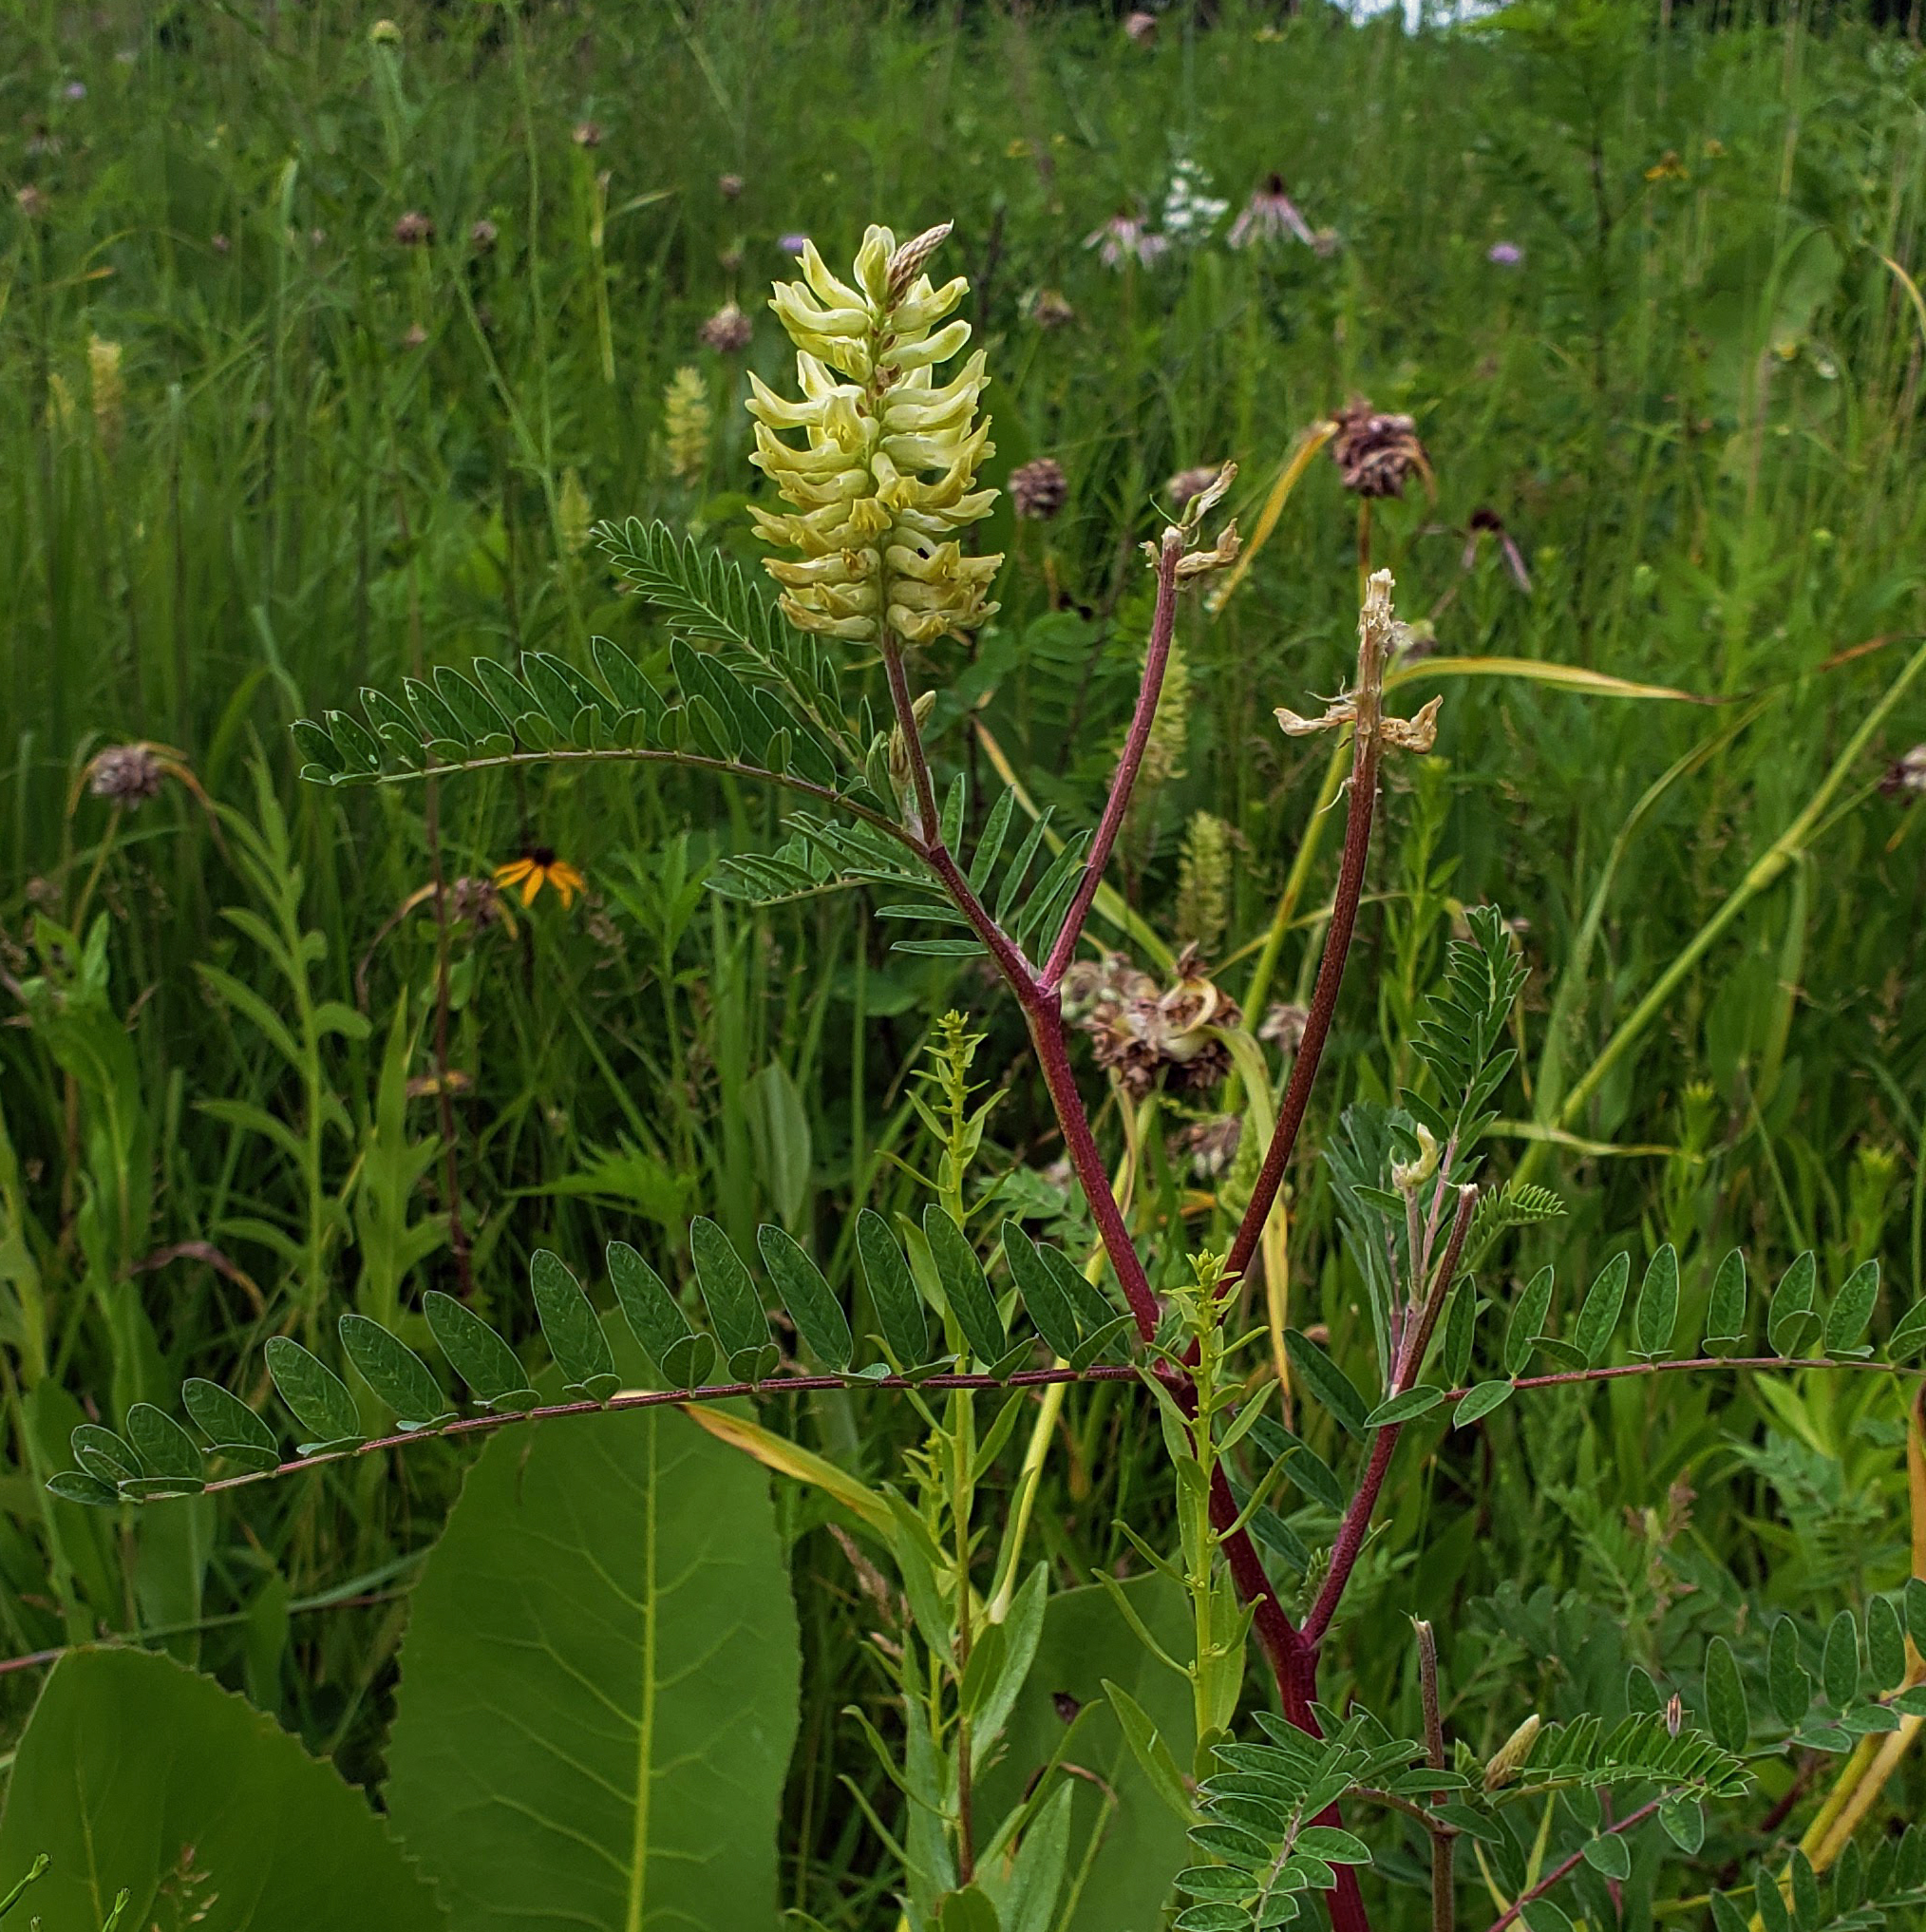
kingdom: Plantae
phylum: Tracheophyta
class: Magnoliopsida
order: Fabales
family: Fabaceae
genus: Astragalus
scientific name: Astragalus canadensis
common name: Canada milk-vetch
